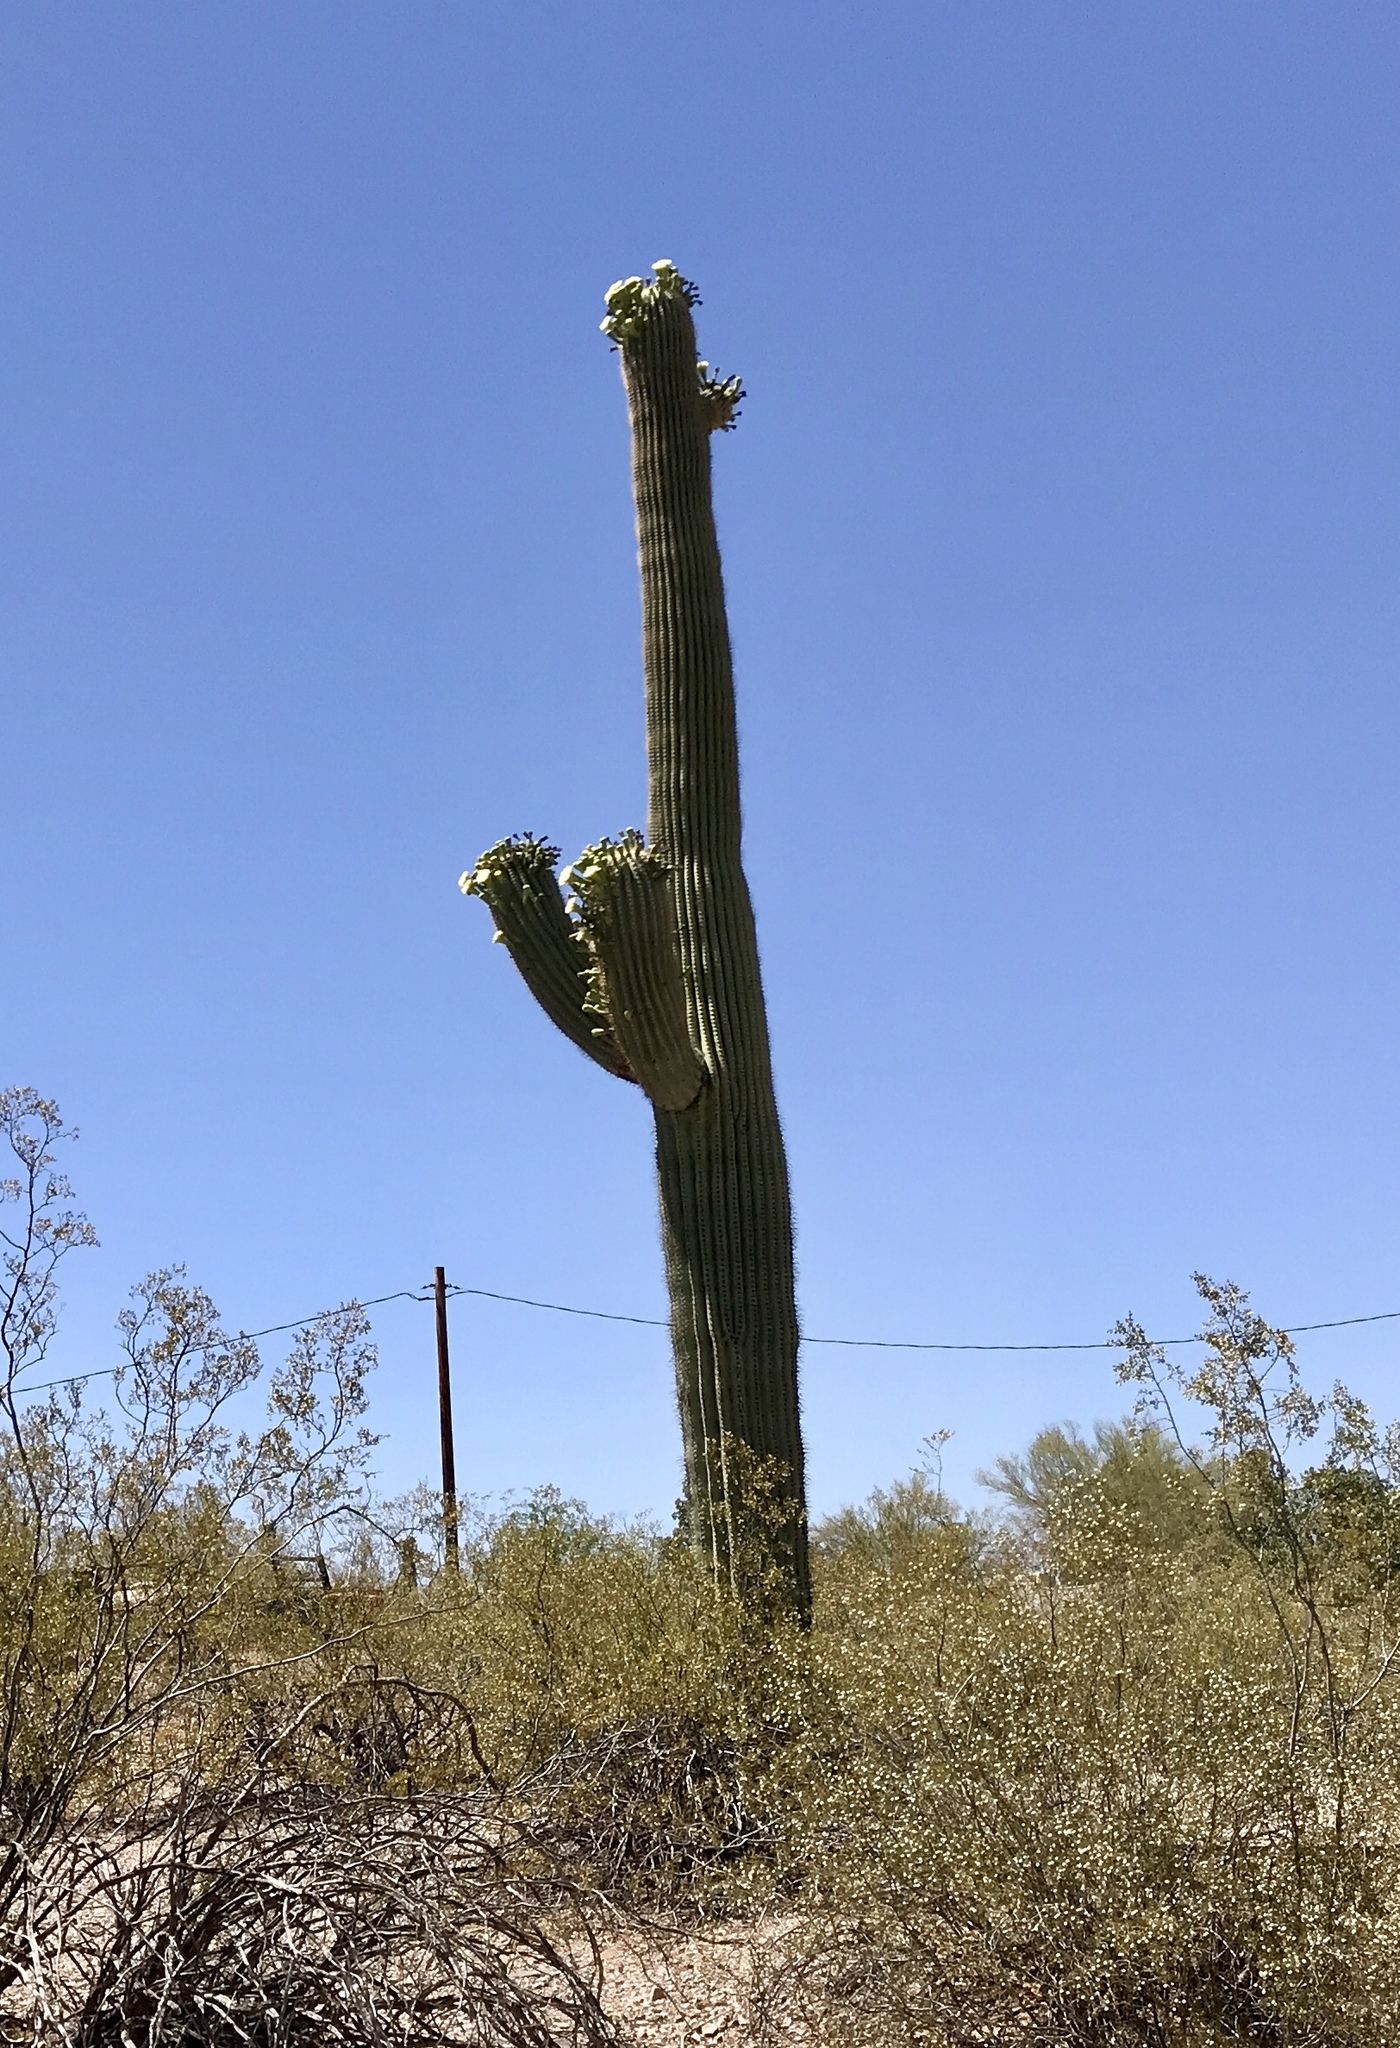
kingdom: Plantae
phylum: Tracheophyta
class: Magnoliopsida
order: Caryophyllales
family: Cactaceae
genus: Carnegiea
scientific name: Carnegiea gigantea
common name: Saguaro
